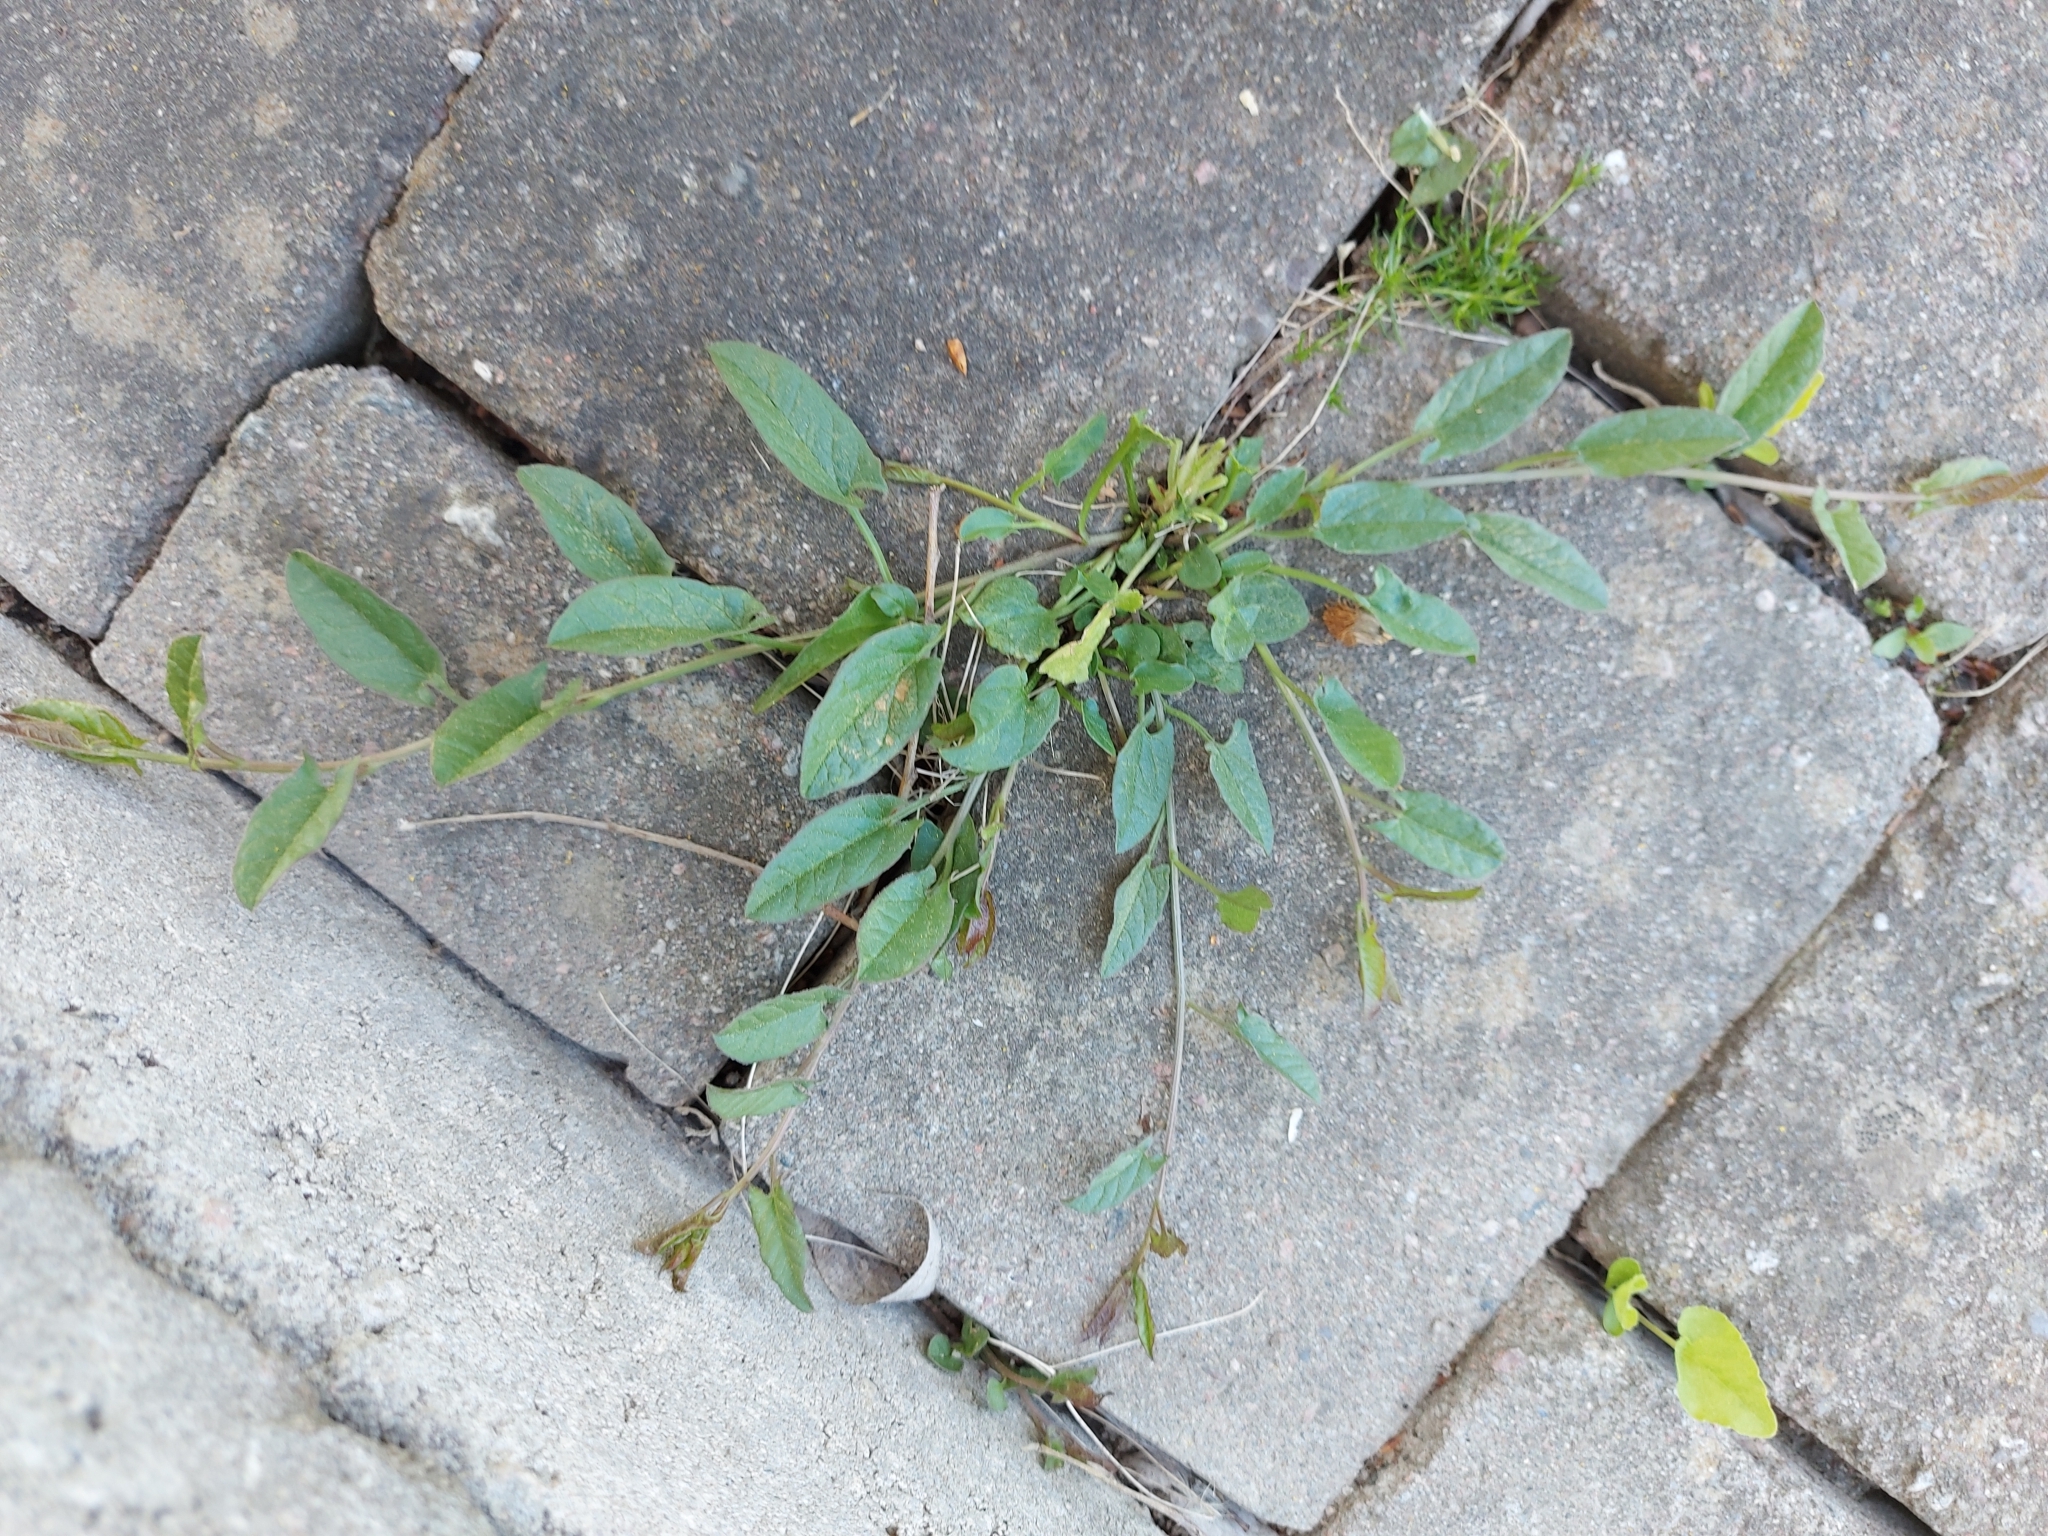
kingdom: Plantae
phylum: Tracheophyta
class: Magnoliopsida
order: Solanales
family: Convolvulaceae
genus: Convolvulus
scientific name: Convolvulus arvensis
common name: Field bindweed
